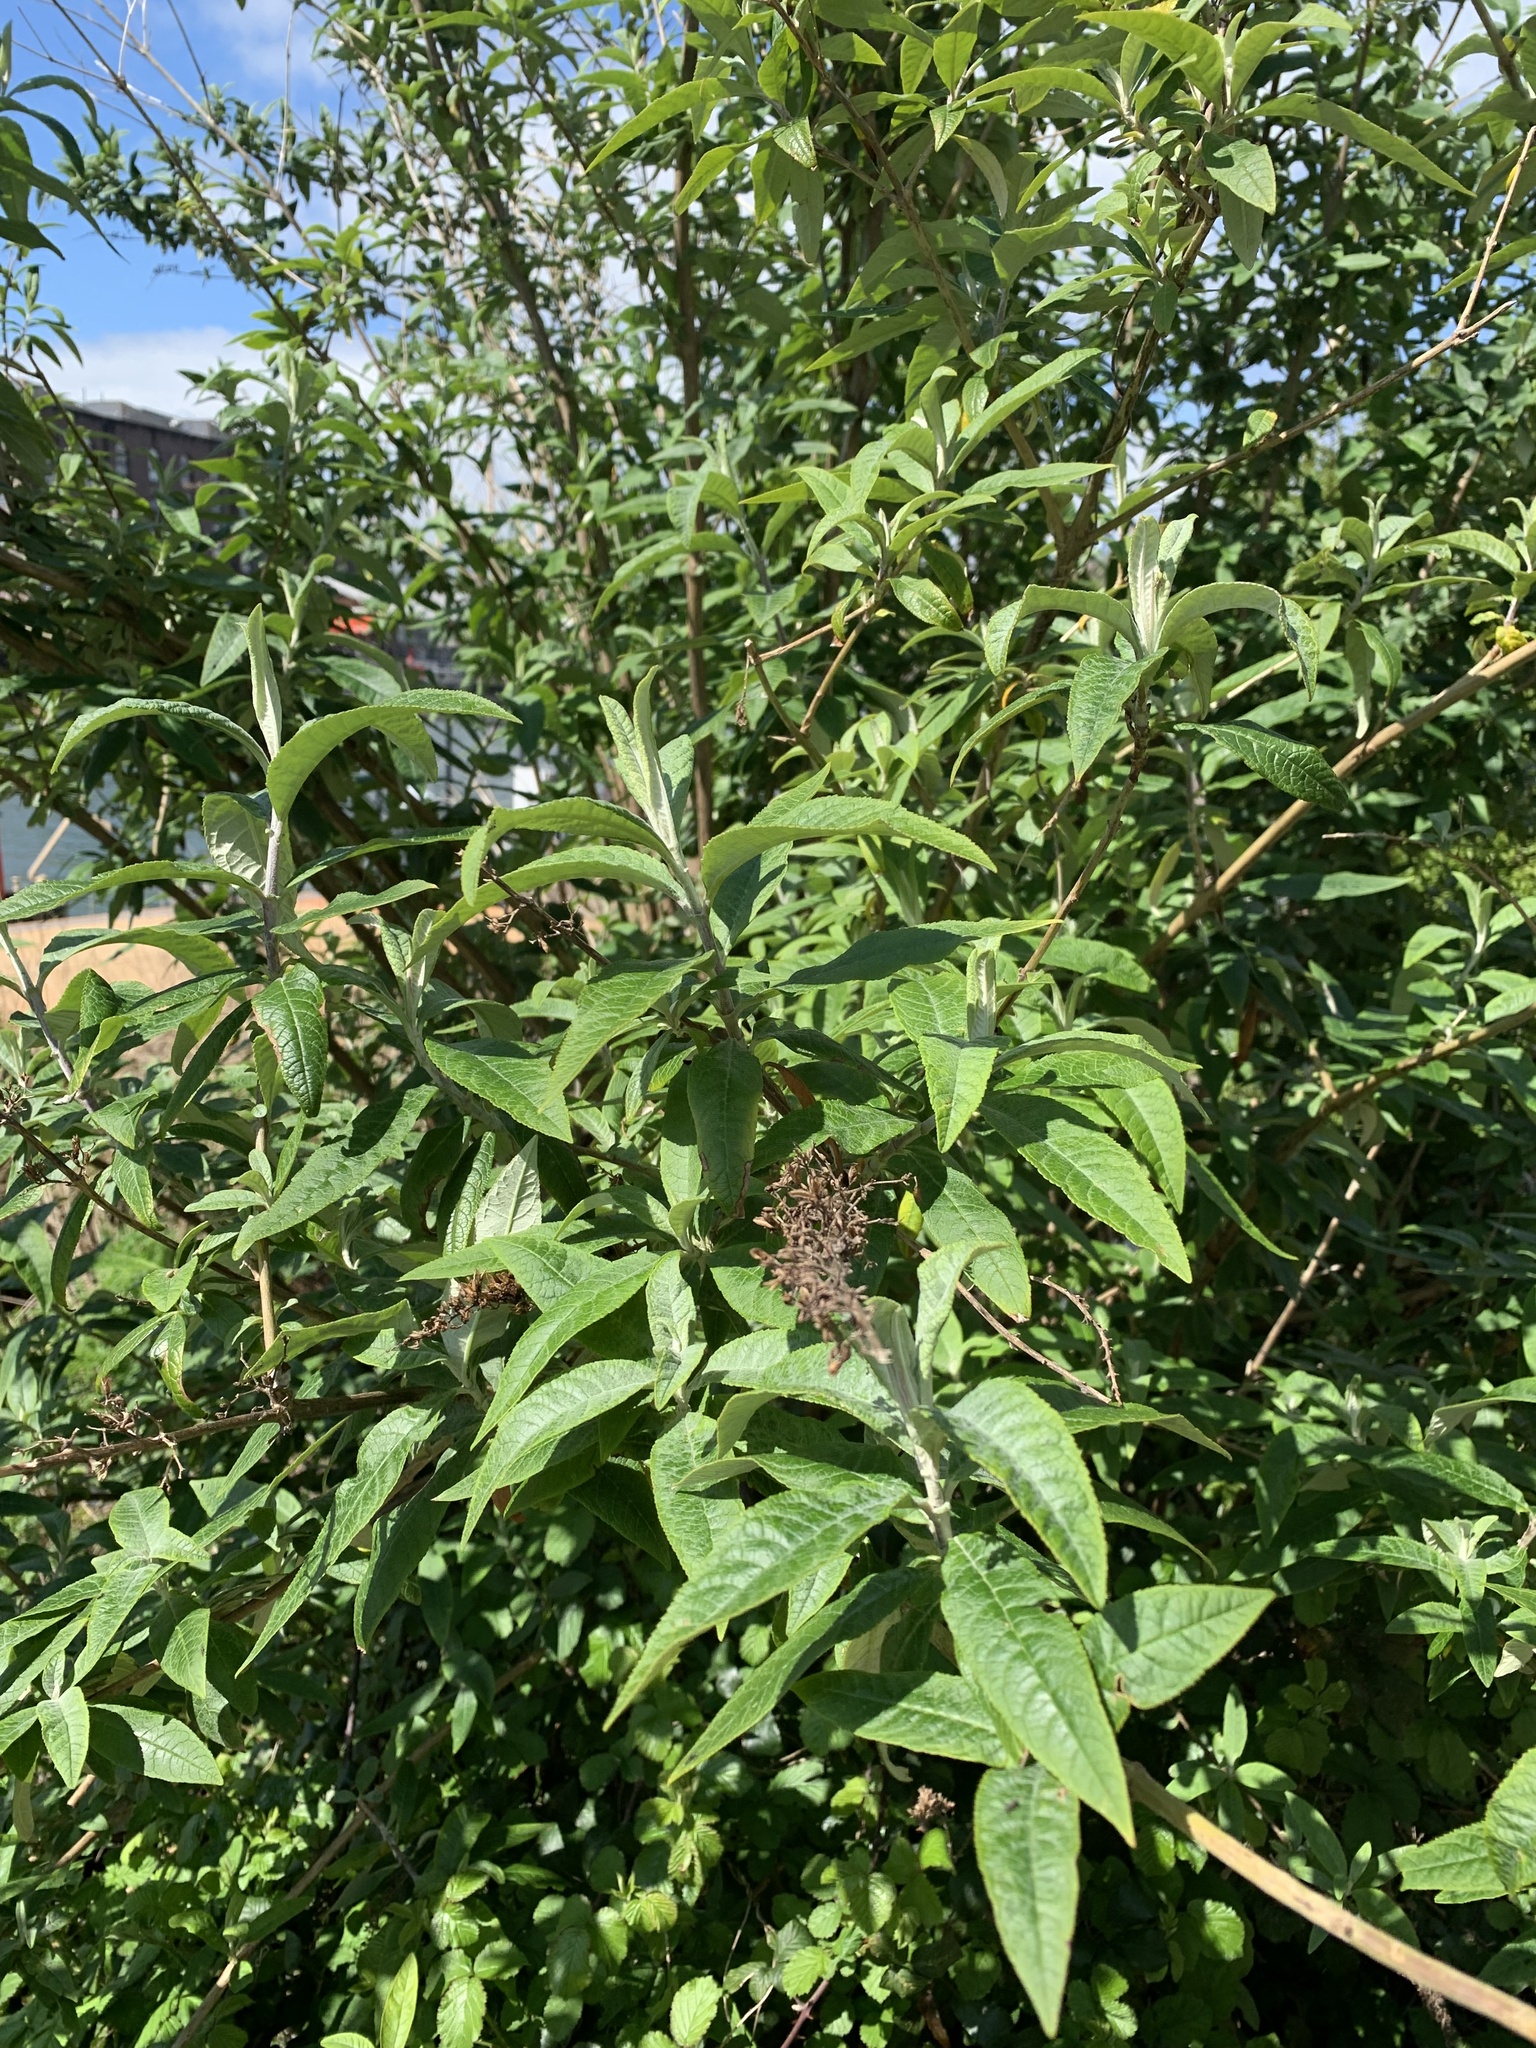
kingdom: Plantae
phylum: Tracheophyta
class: Magnoliopsida
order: Lamiales
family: Scrophulariaceae
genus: Buddleja
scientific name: Buddleja davidii
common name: Butterfly-bush
